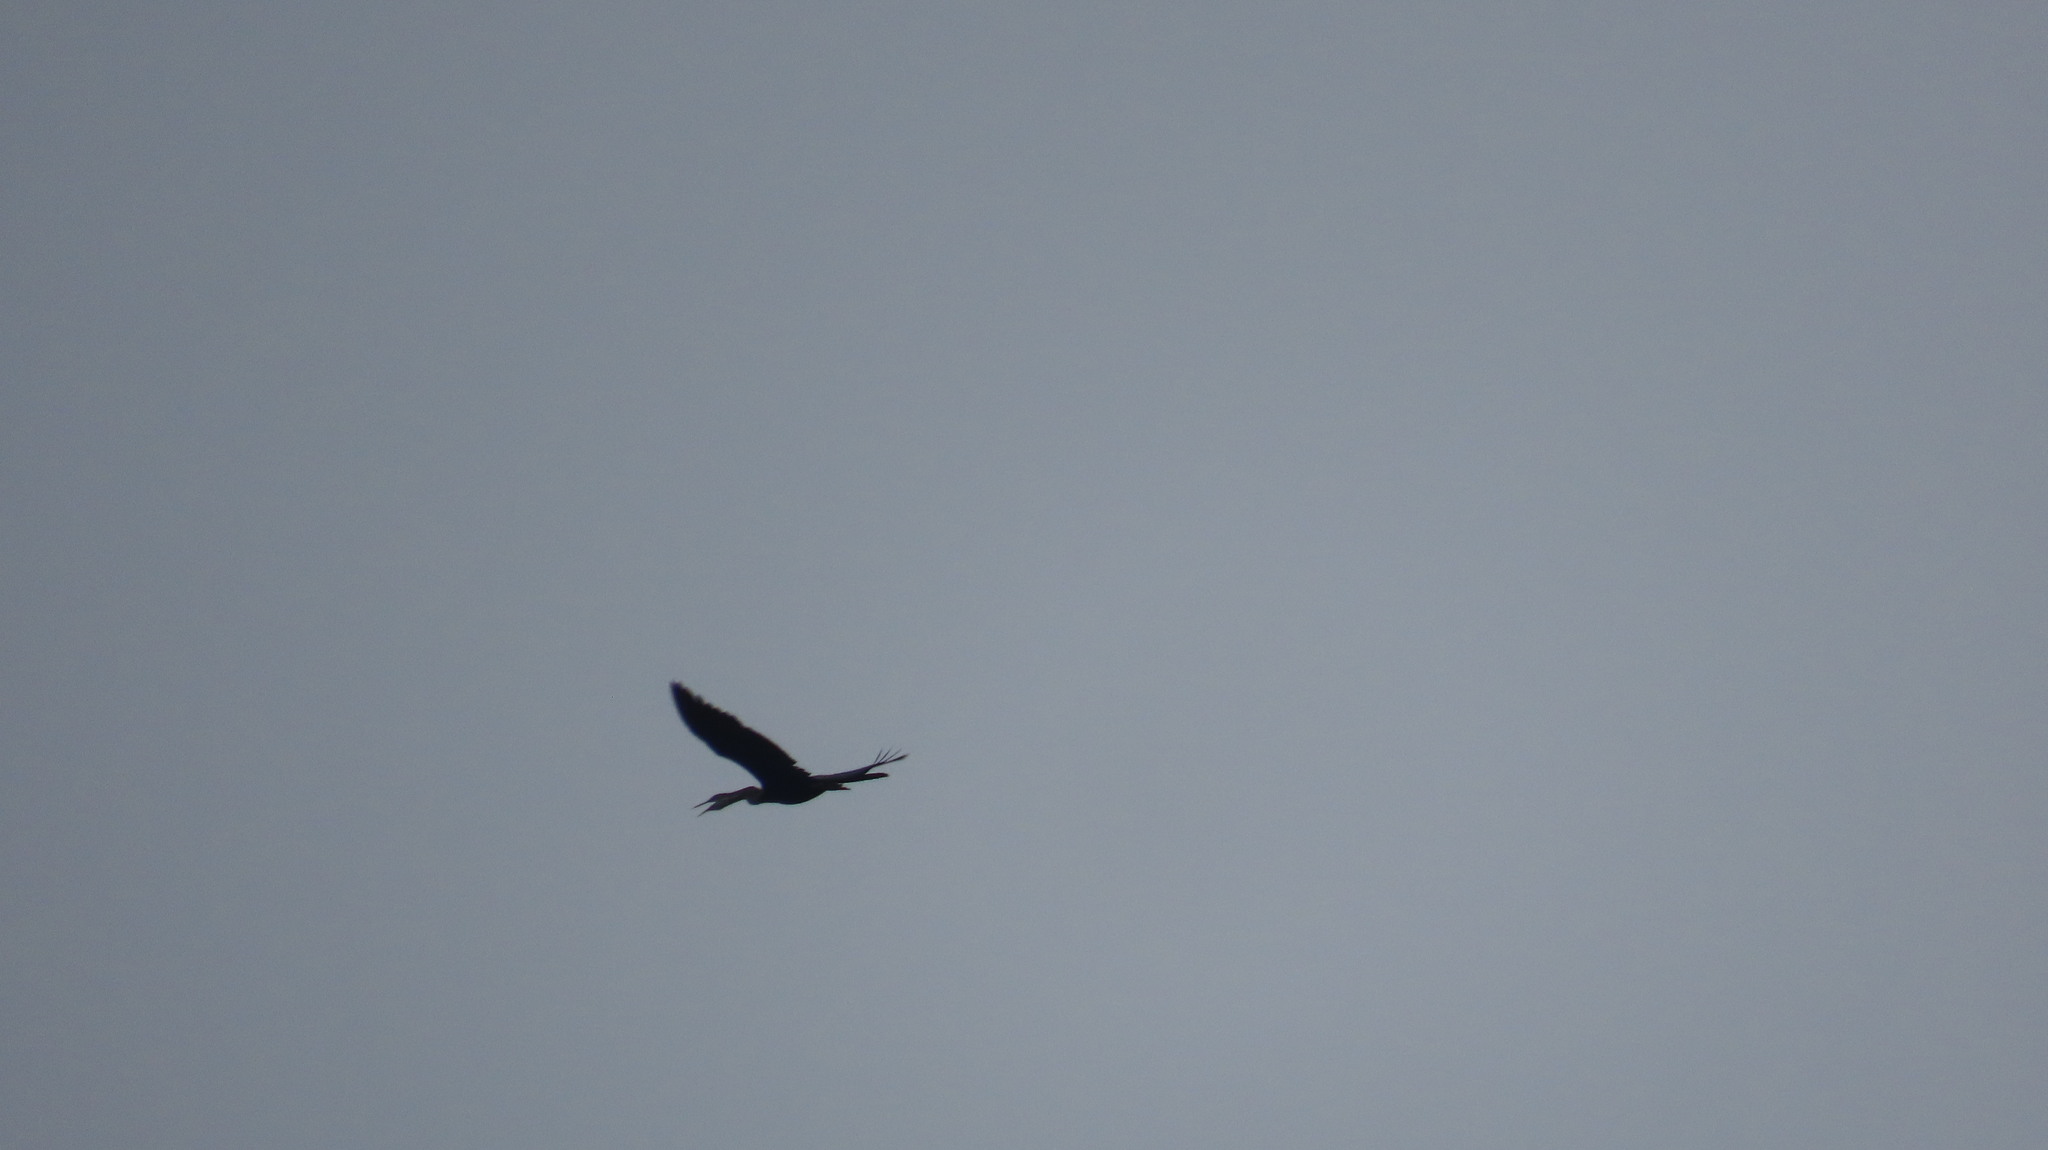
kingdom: Animalia
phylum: Chordata
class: Aves
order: Suliformes
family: Anhingidae
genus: Anhinga
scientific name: Anhinga melanogaster
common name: Oriental darter
